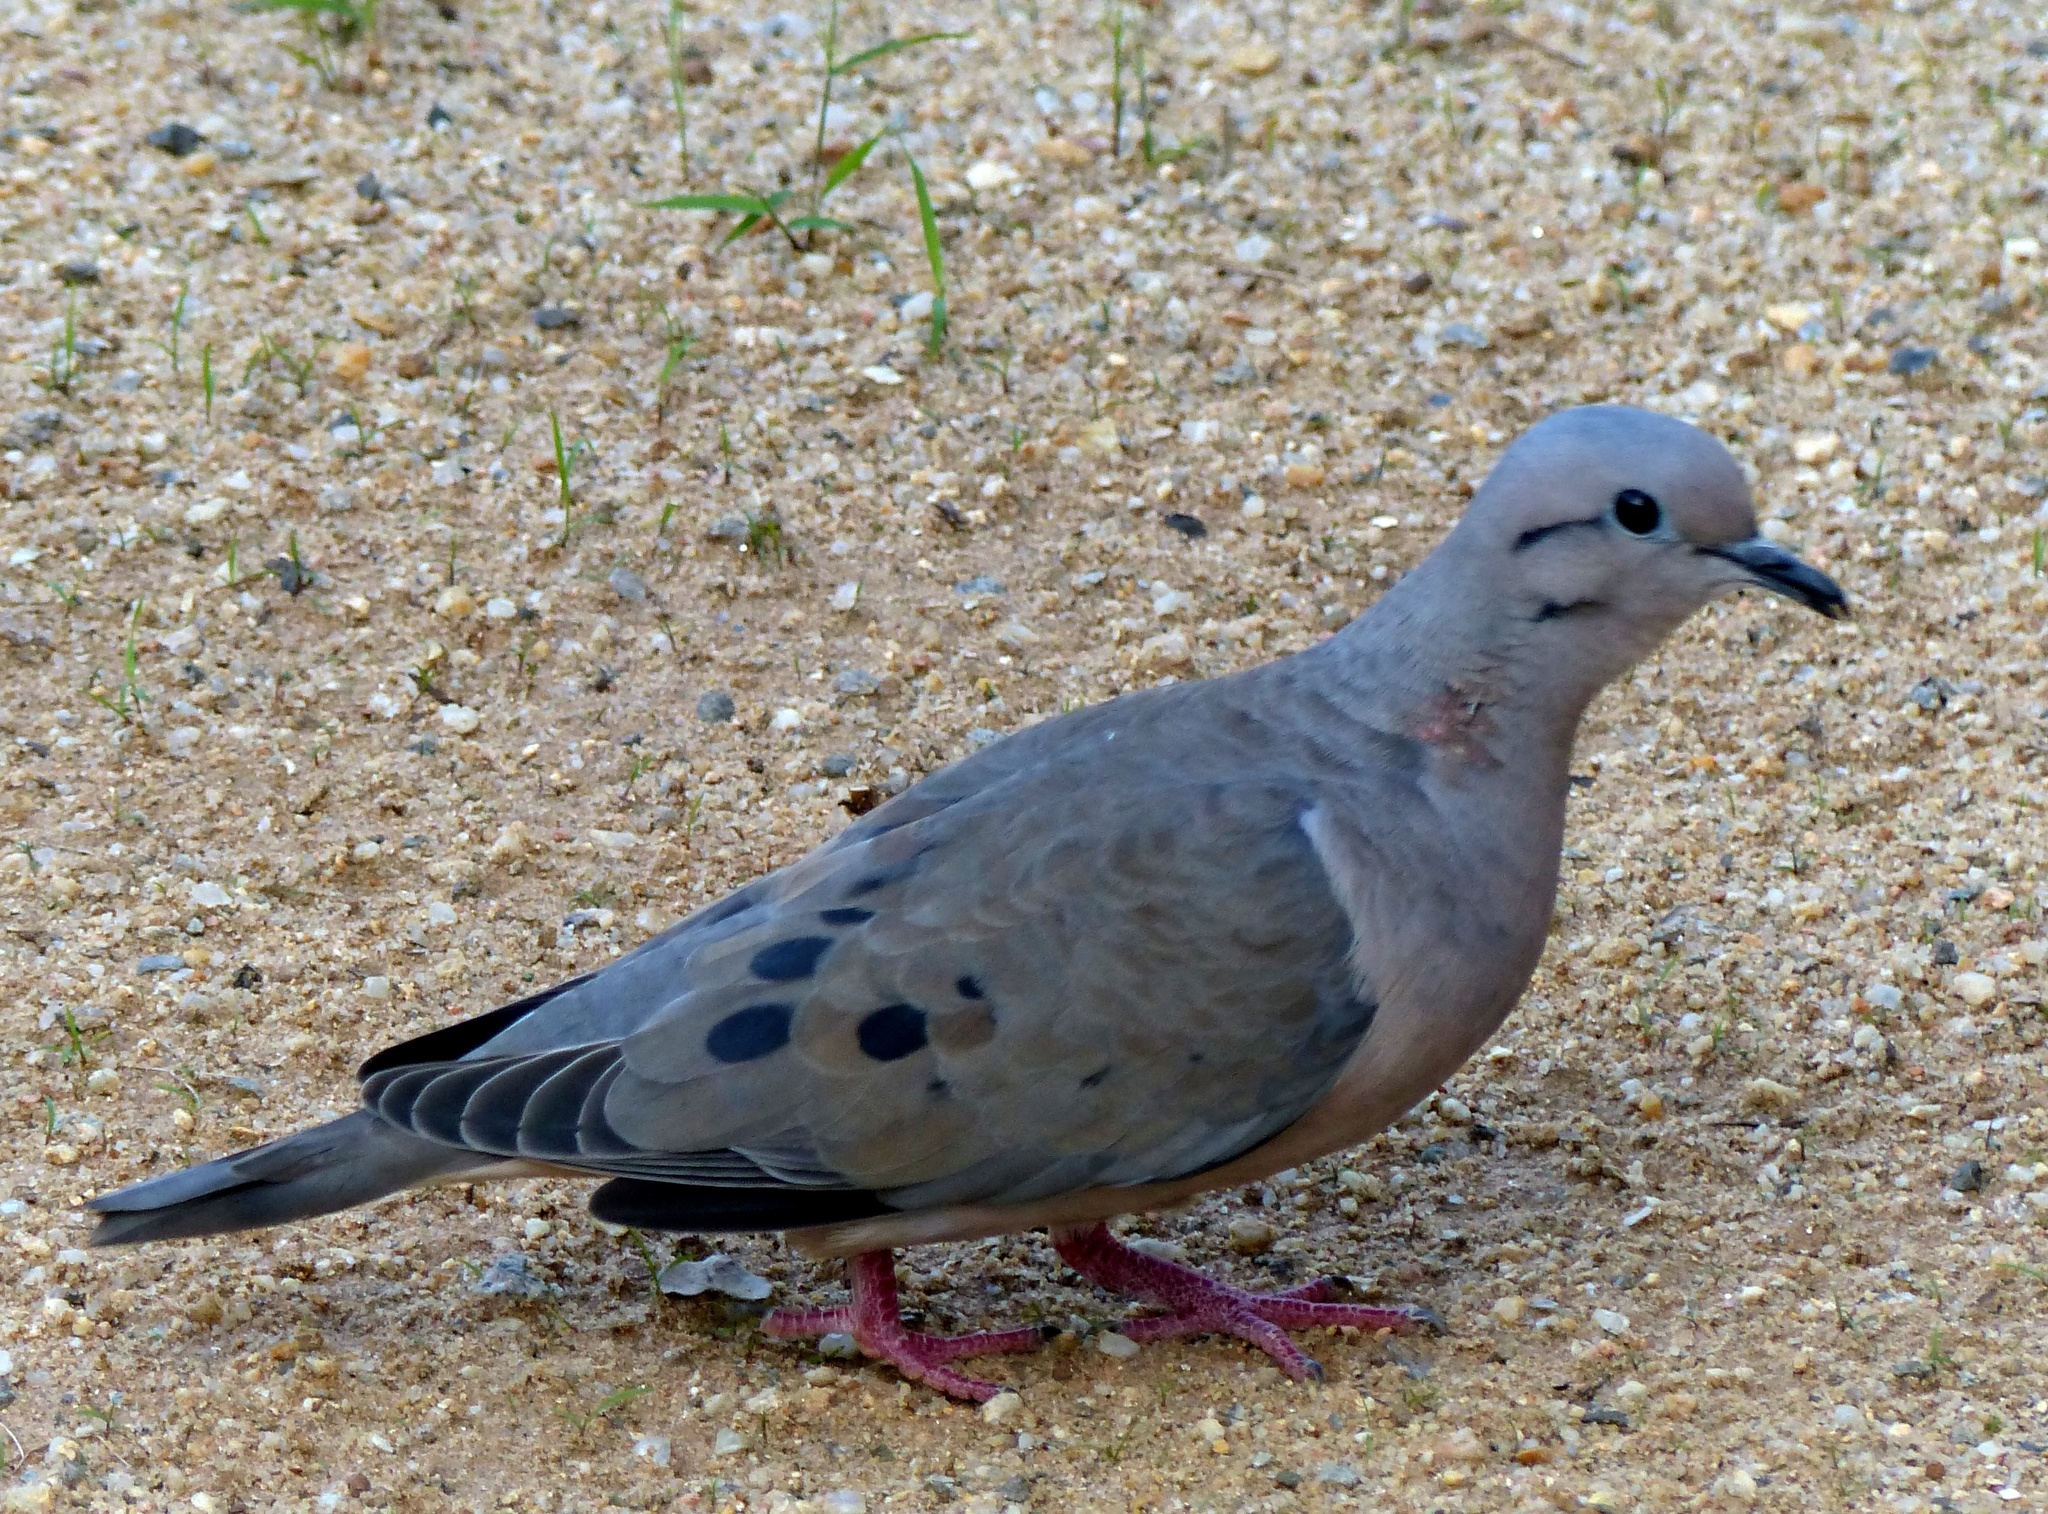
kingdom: Animalia
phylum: Chordata
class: Aves
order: Columbiformes
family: Columbidae
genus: Zenaida
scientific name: Zenaida auriculata
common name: Eared dove
